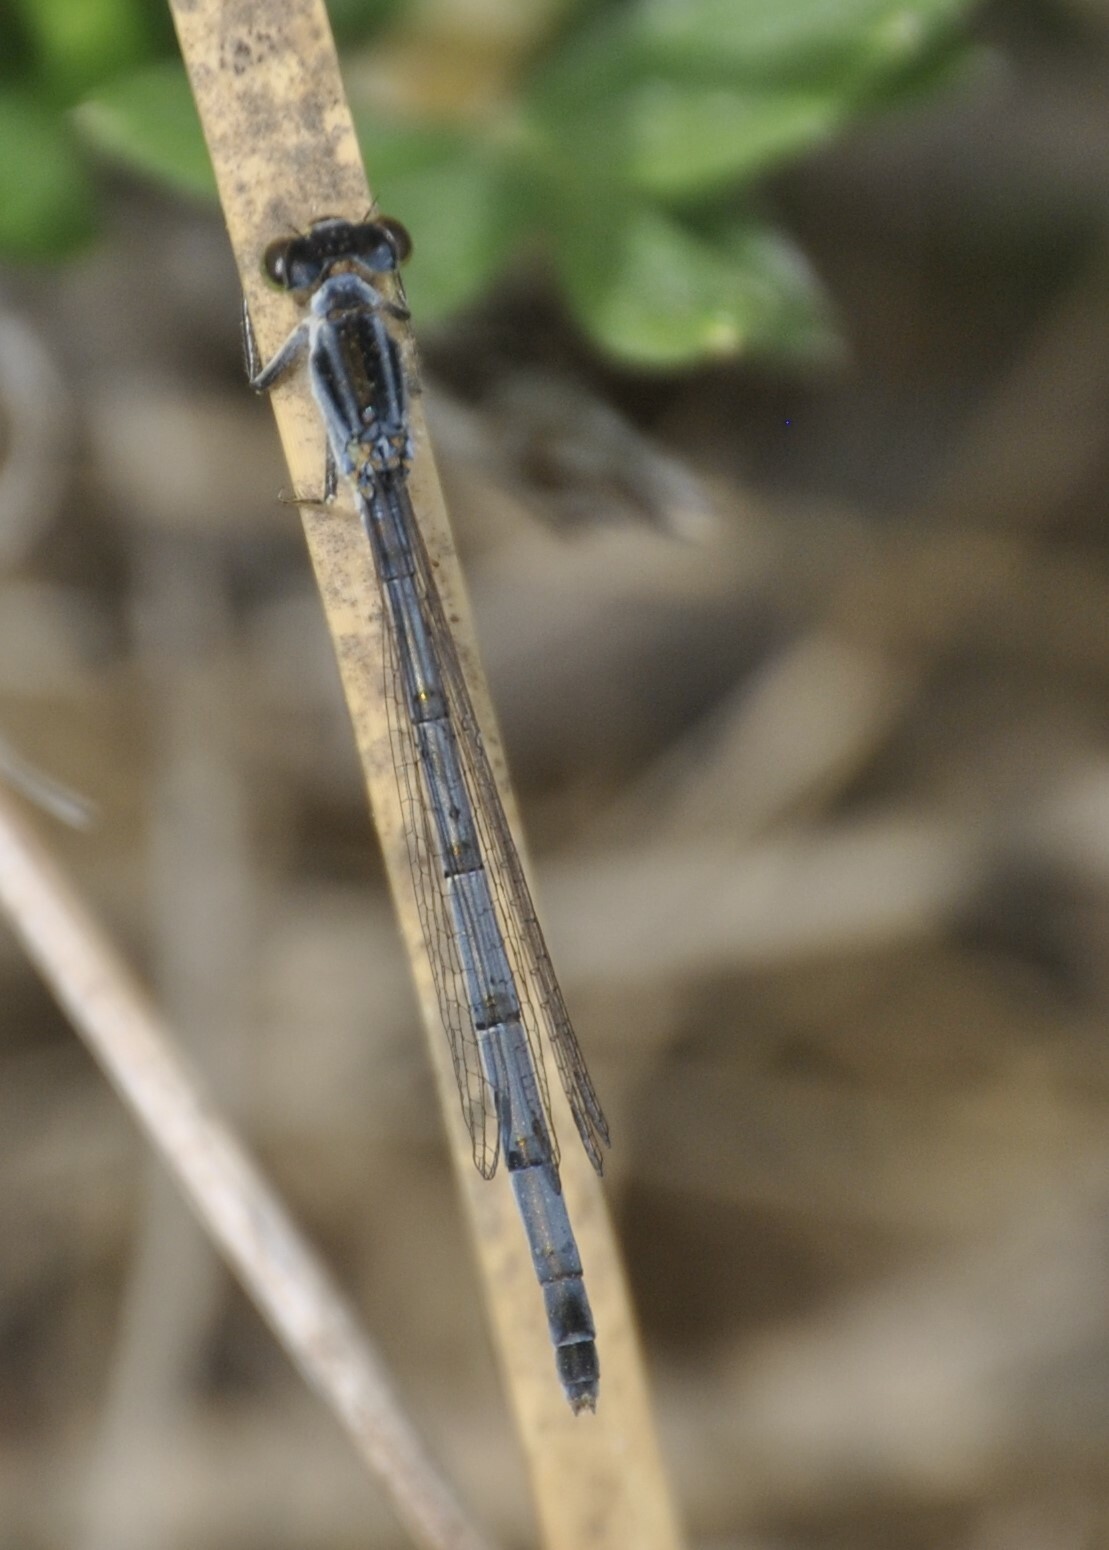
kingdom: Animalia
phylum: Arthropoda
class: Insecta
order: Odonata
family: Coenagrionidae
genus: Ischnura
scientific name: Ischnura verticalis
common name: Eastern forktail
